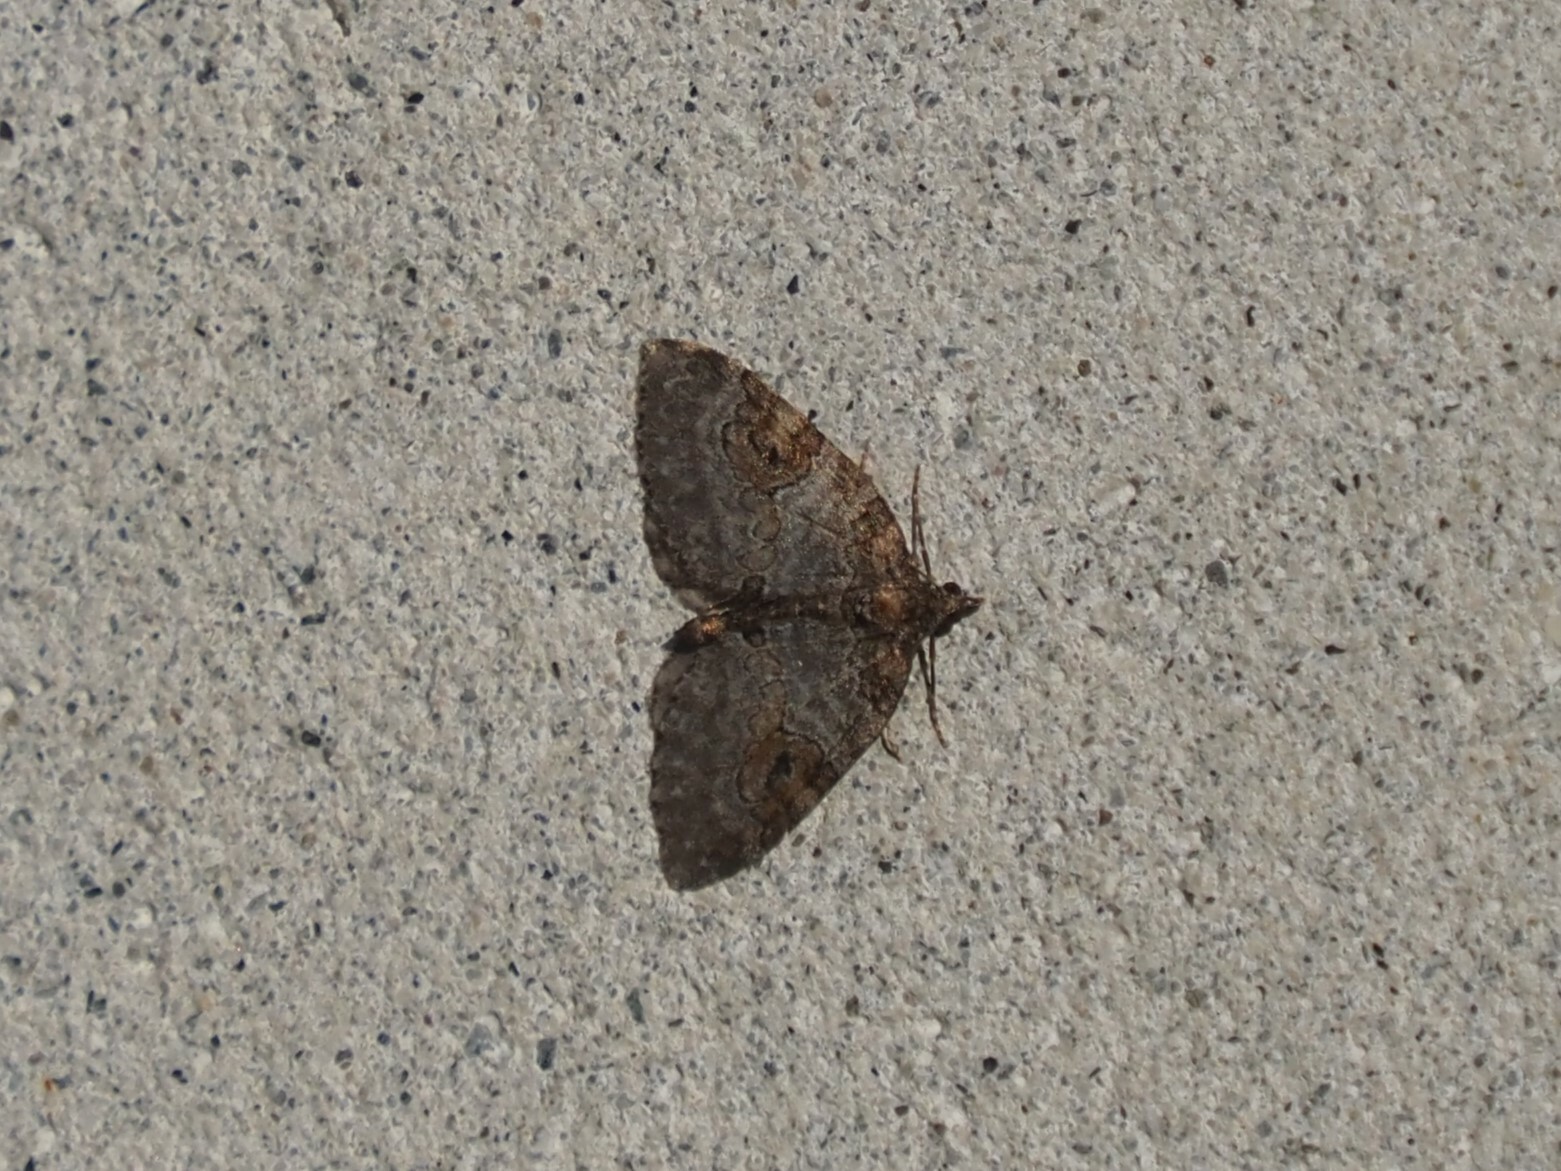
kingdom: Animalia
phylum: Arthropoda
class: Insecta
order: Lepidoptera
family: Geometridae
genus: Plemyria
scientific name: Plemyria georgii
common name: George's carpet moth
